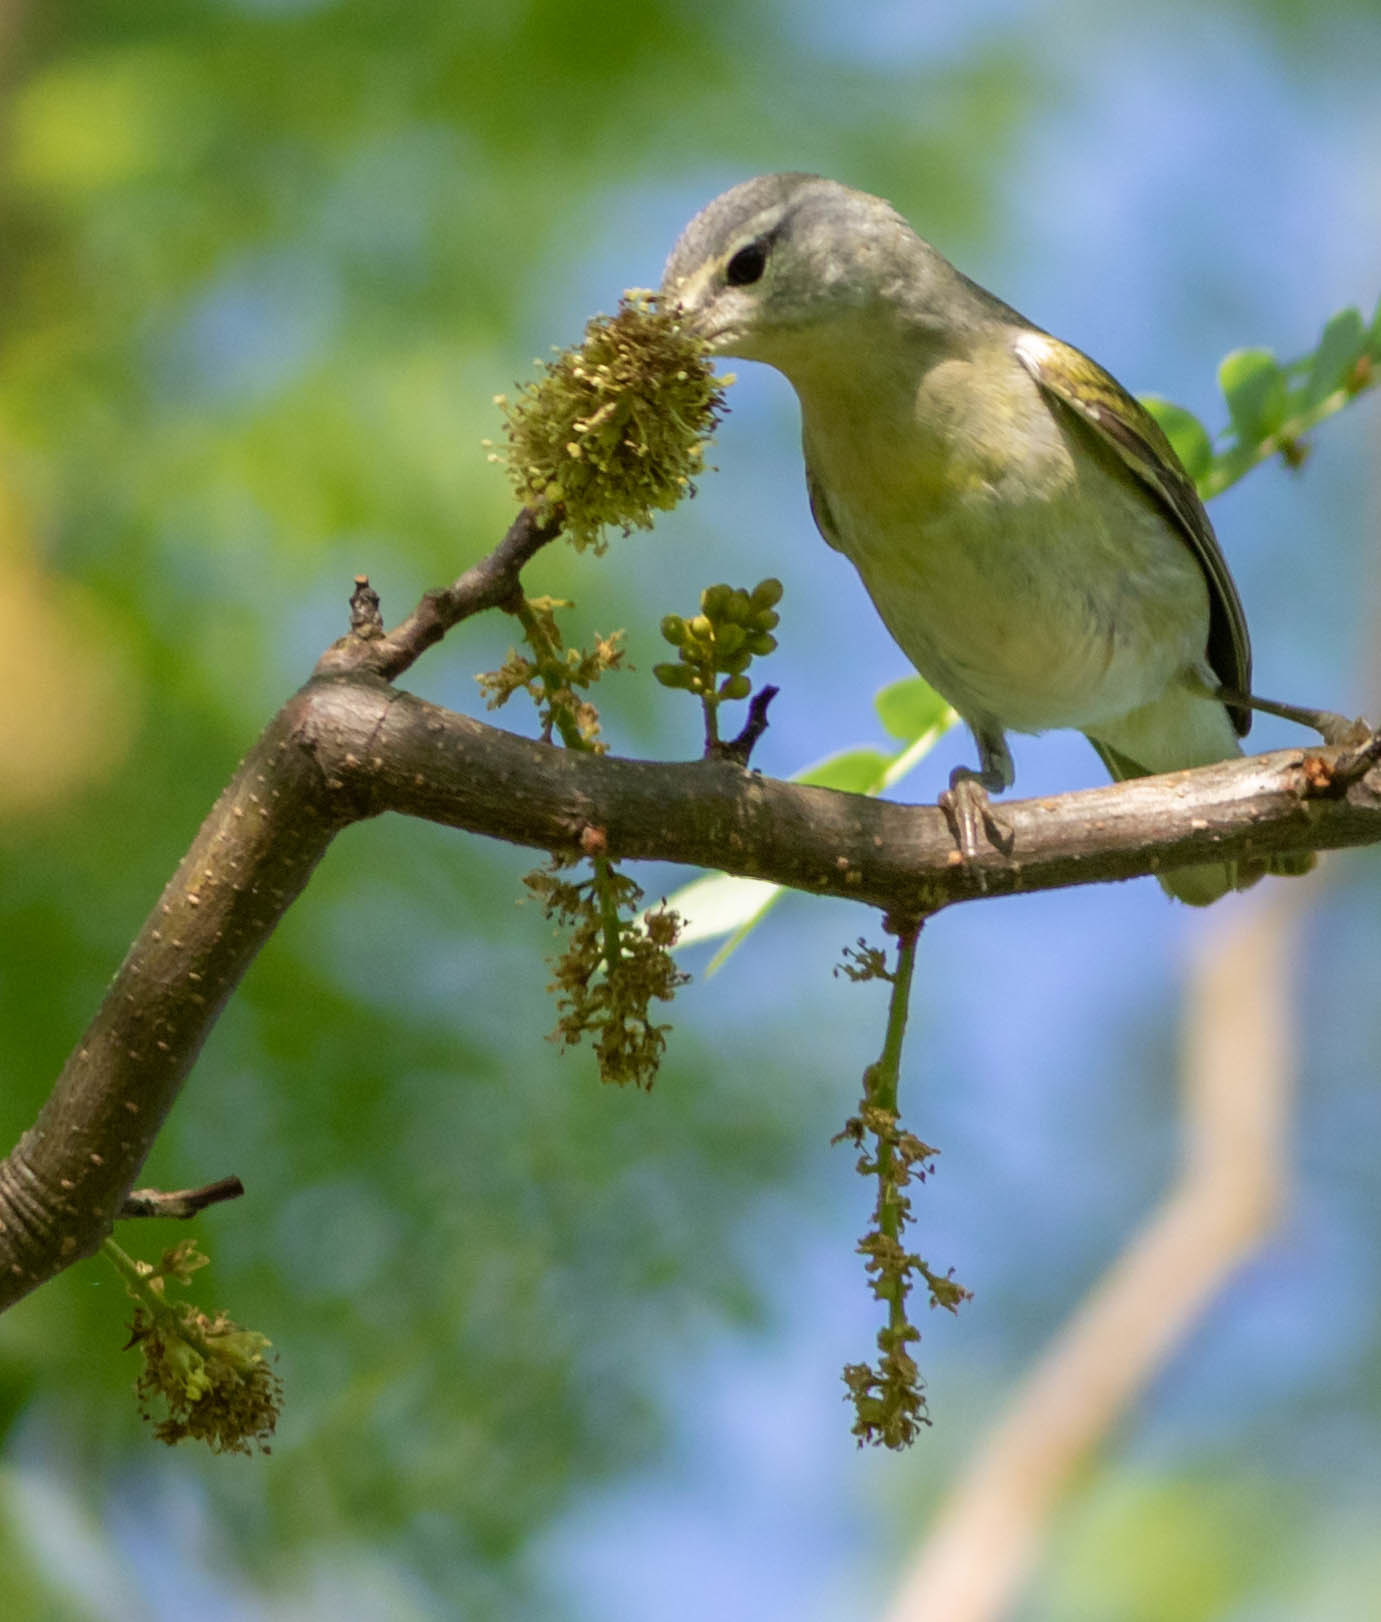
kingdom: Animalia
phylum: Chordata
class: Aves
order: Passeriformes
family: Parulidae
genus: Leiothlypis
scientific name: Leiothlypis peregrina
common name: Tennessee warbler
